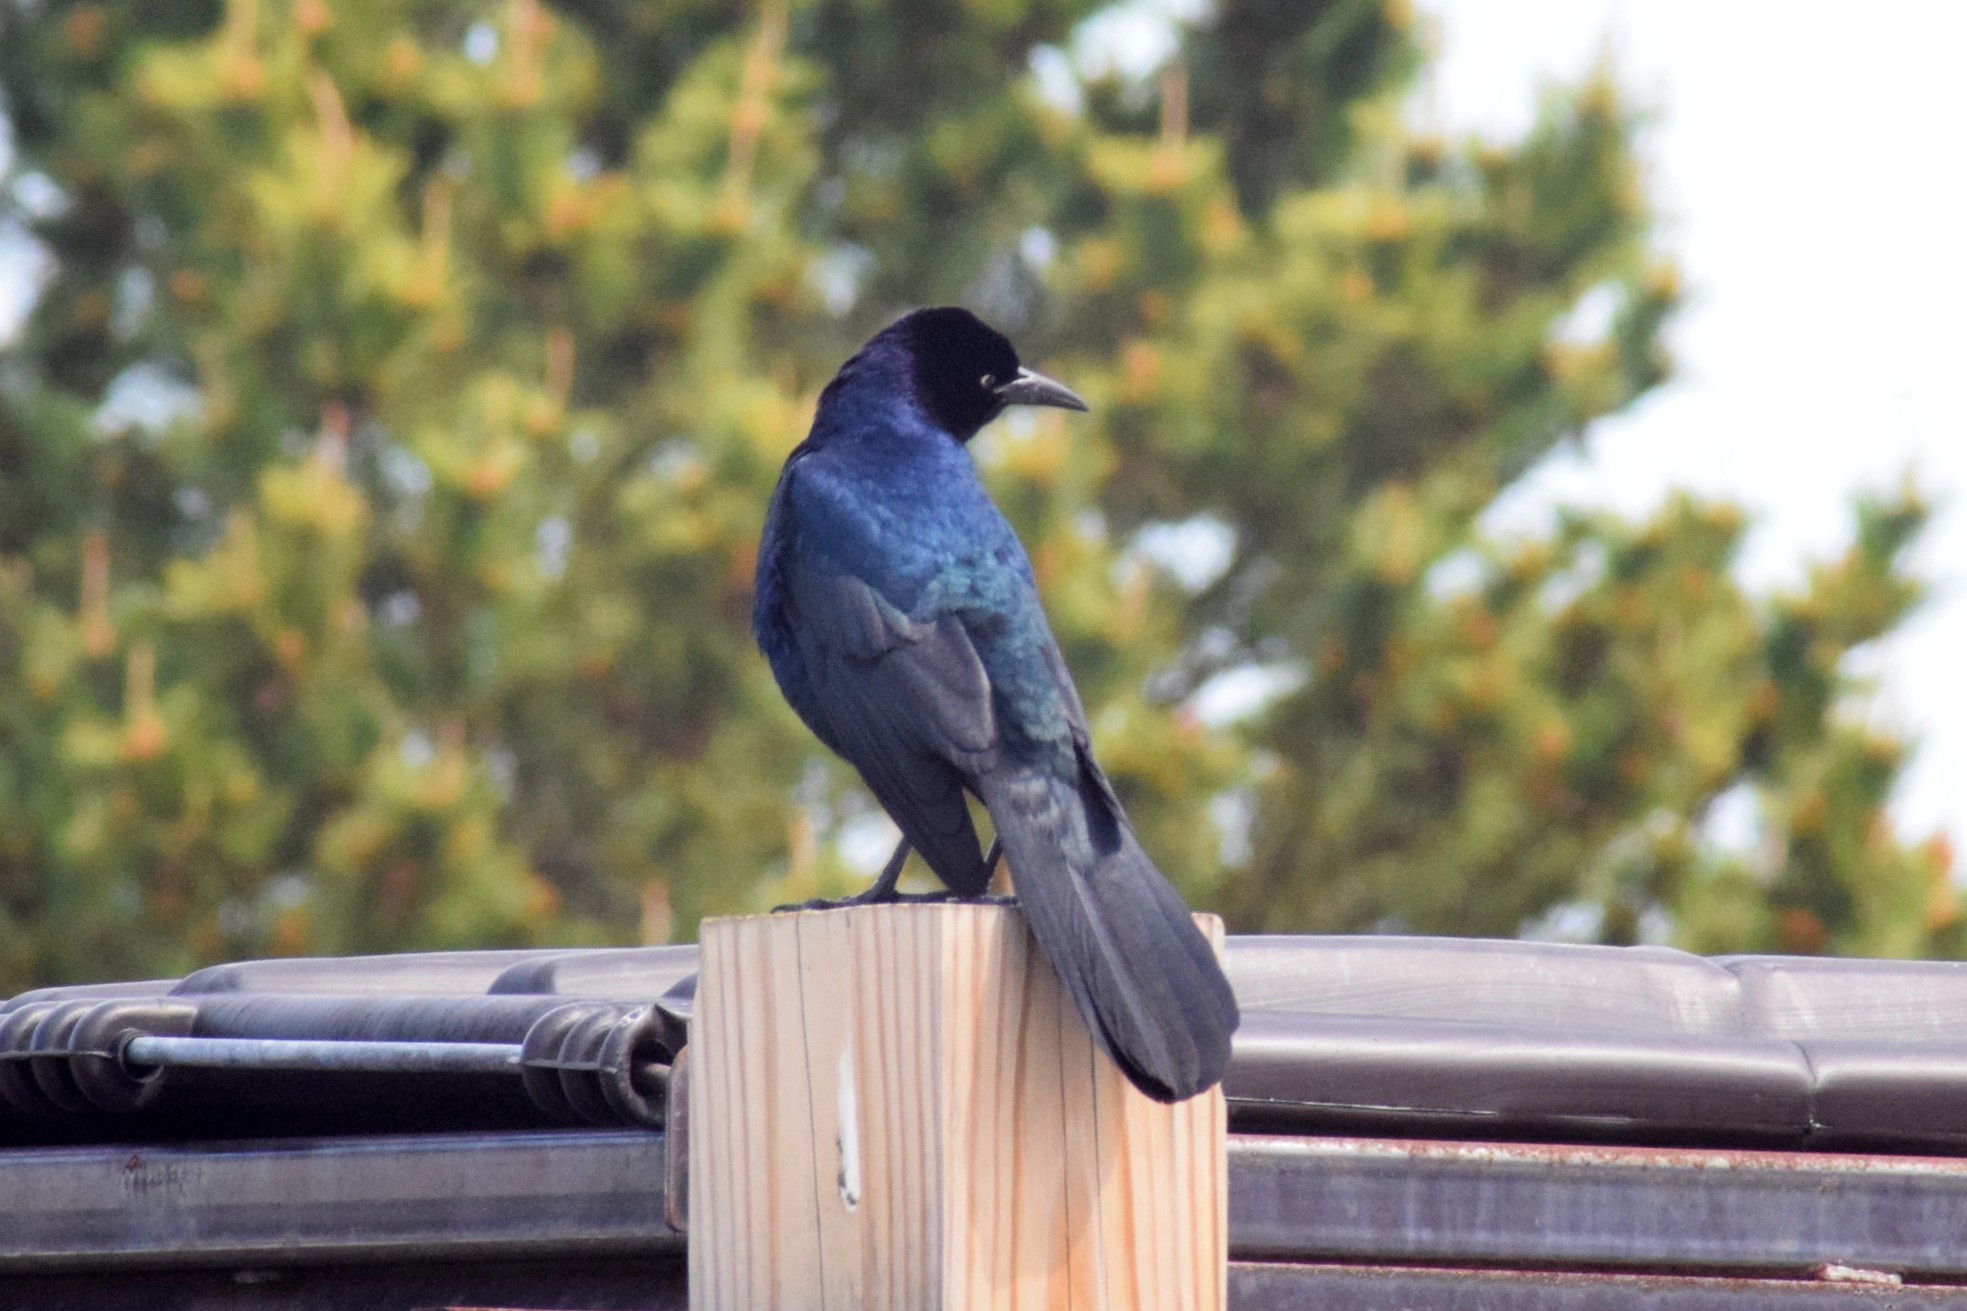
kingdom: Animalia
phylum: Chordata
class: Aves
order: Passeriformes
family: Icteridae
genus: Quiscalus
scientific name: Quiscalus major
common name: Boat-tailed grackle
